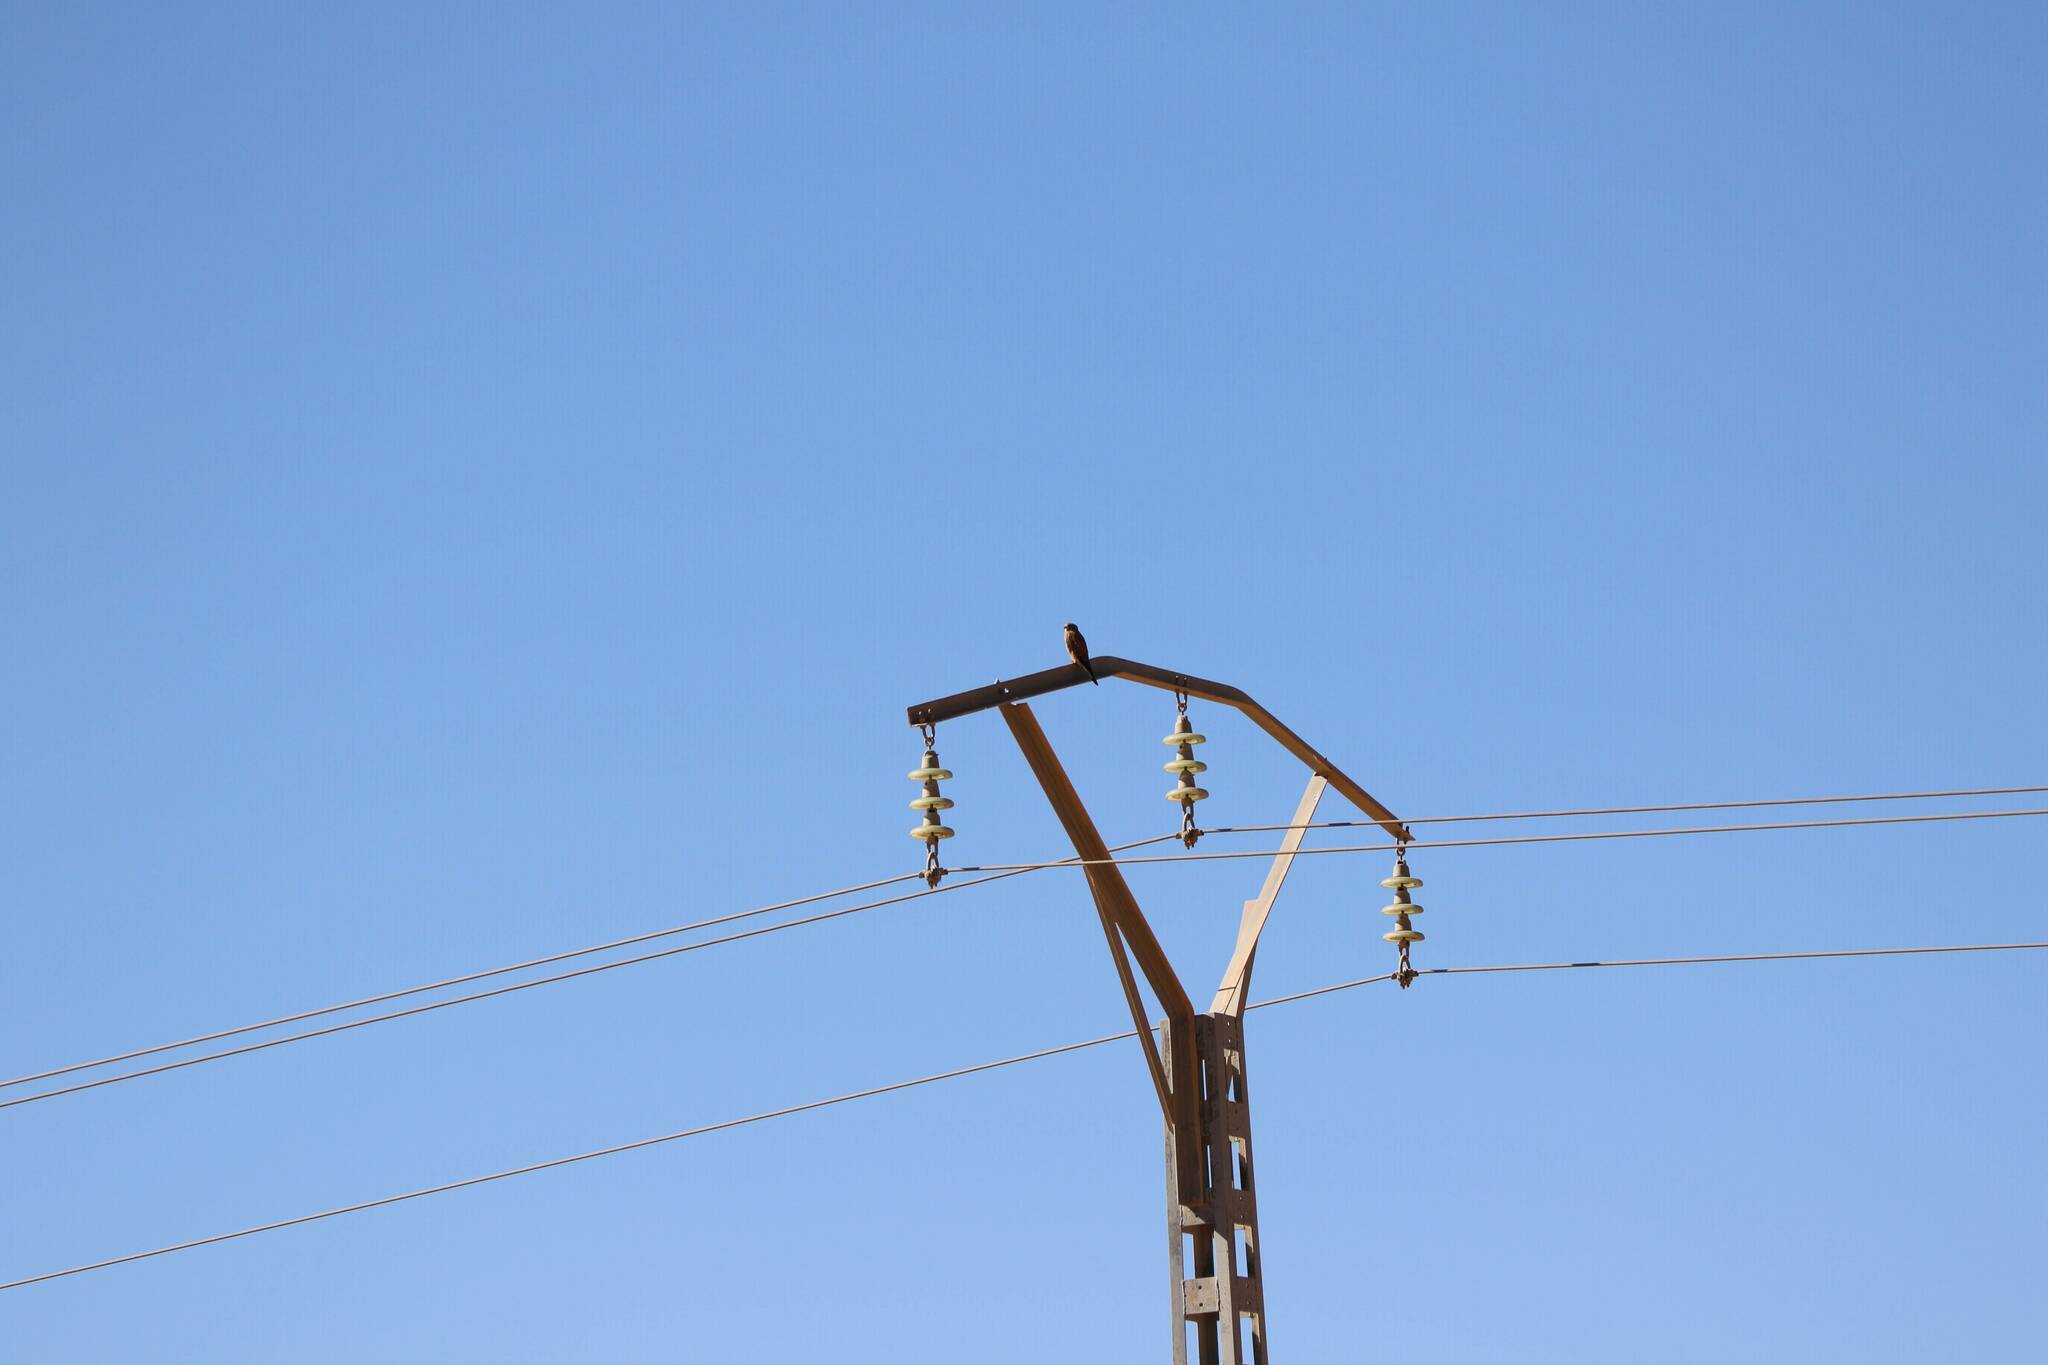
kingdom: Animalia
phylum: Chordata
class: Aves
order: Falconiformes
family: Falconidae
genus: Falco
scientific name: Falco tinnunculus
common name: Common kestrel
